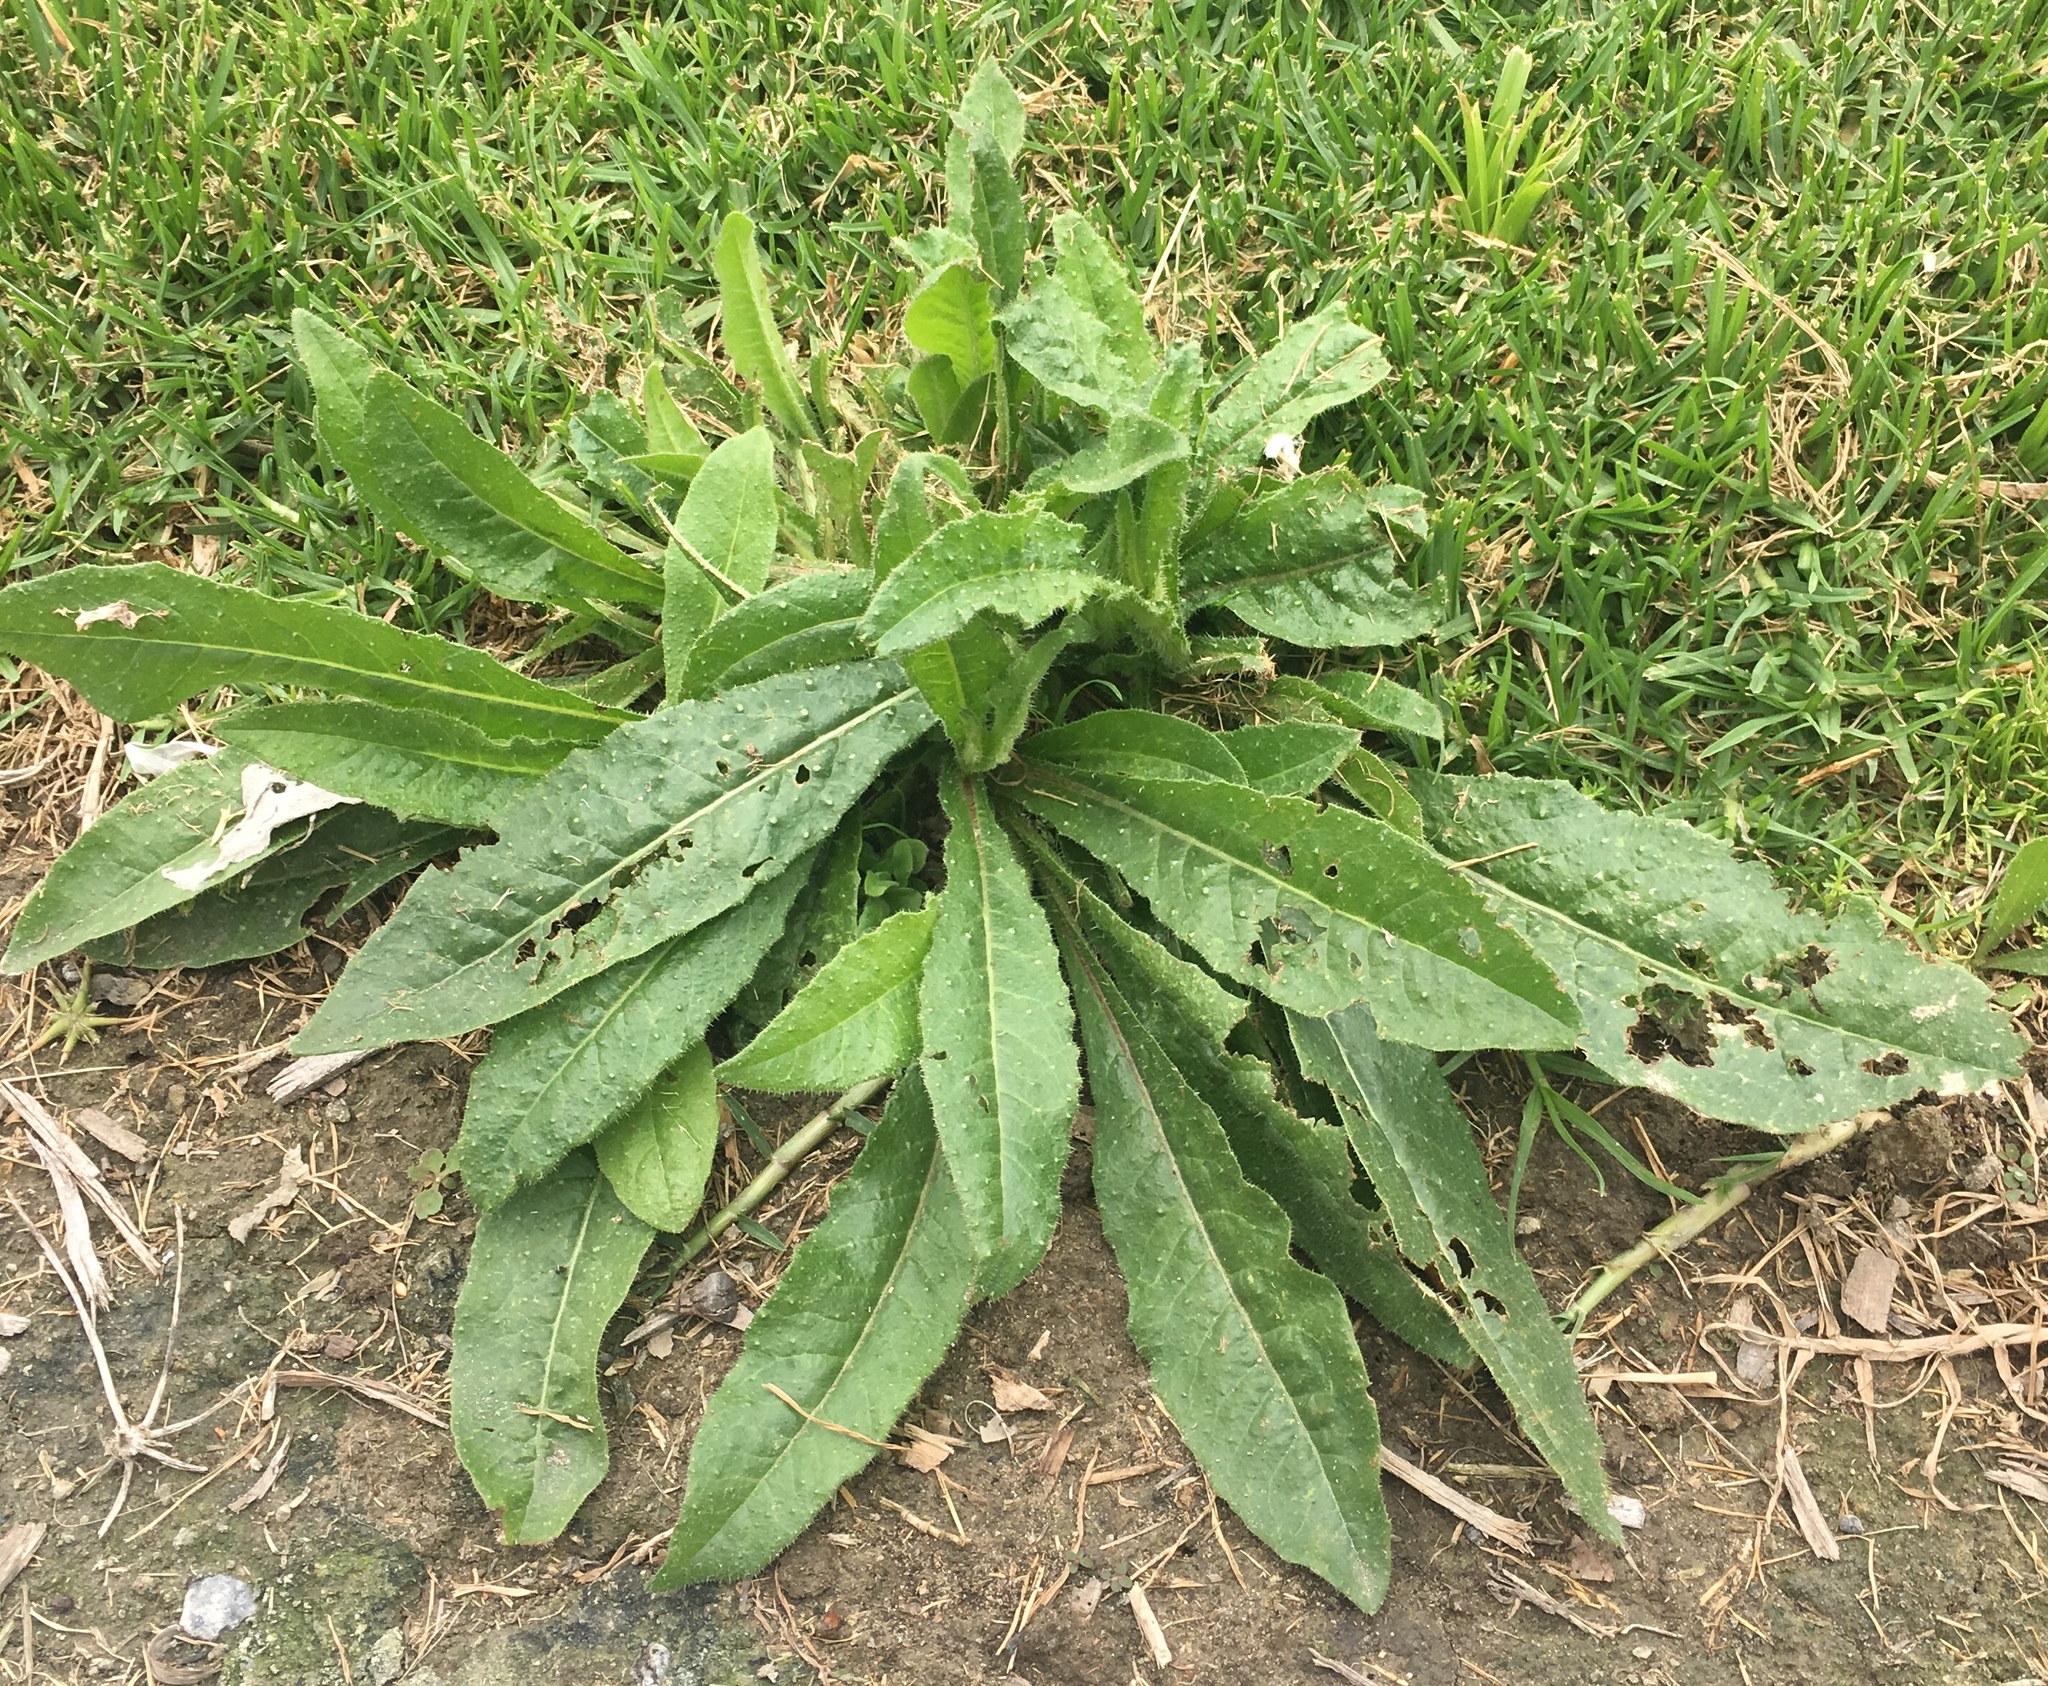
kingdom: Plantae
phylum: Tracheophyta
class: Magnoliopsida
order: Asterales
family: Asteraceae
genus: Helminthotheca
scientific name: Helminthotheca echioides
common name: Ox-tongue
